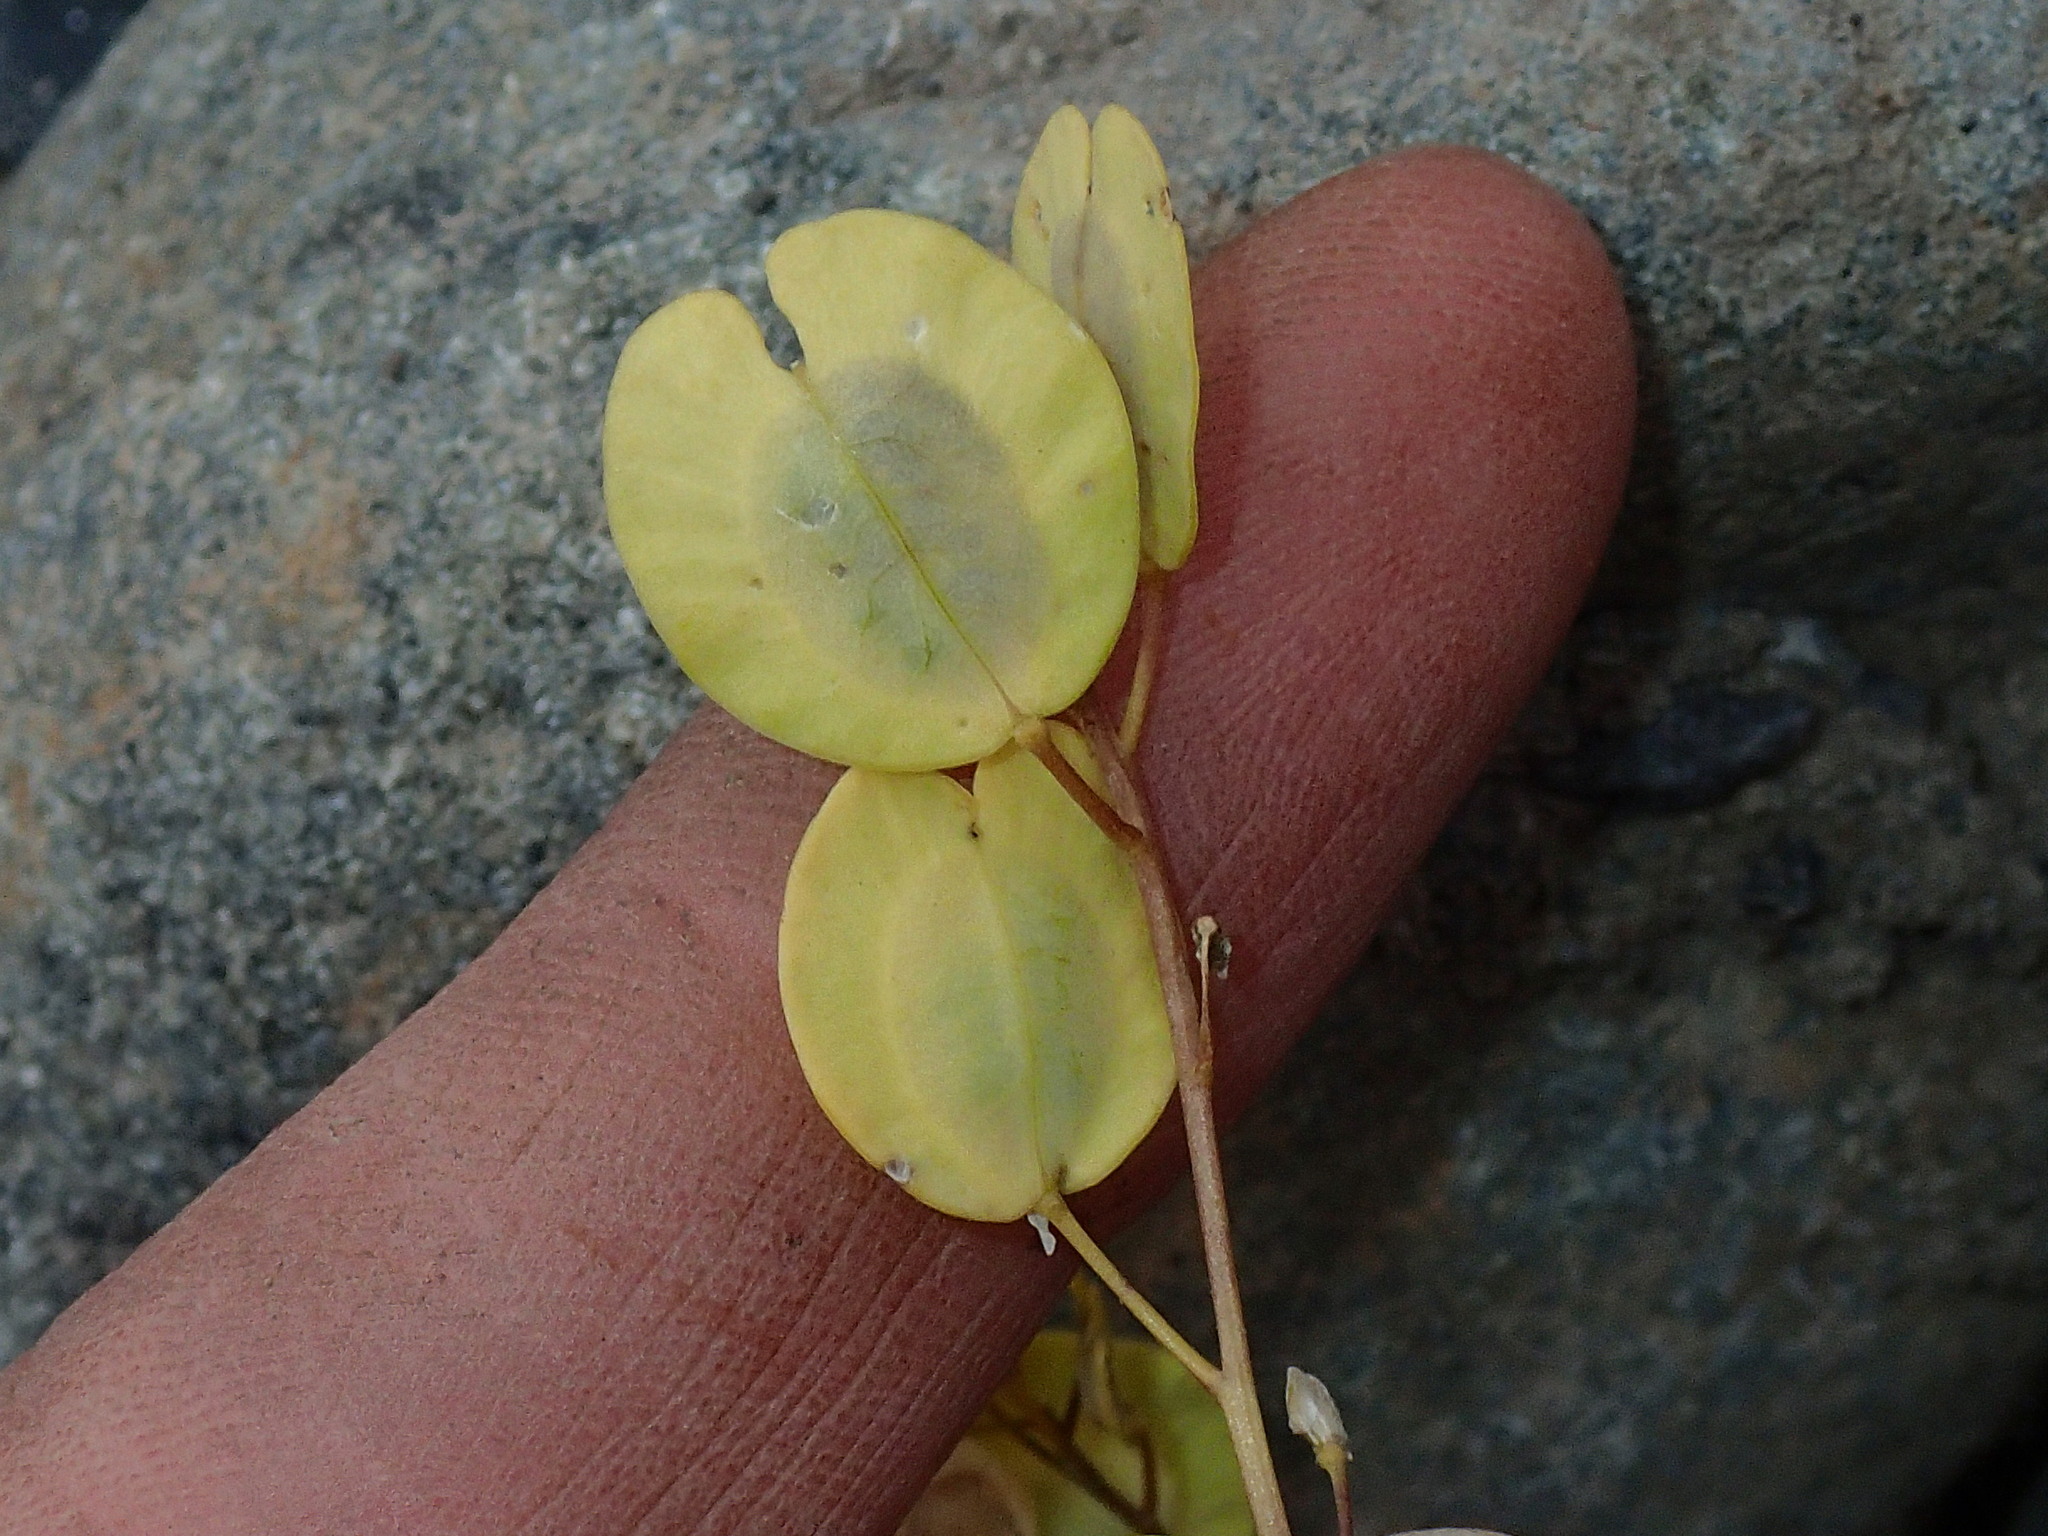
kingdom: Plantae
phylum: Tracheophyta
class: Magnoliopsida
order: Brassicales
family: Brassicaceae
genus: Thlaspi
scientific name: Thlaspi arvense
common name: Field pennycress
